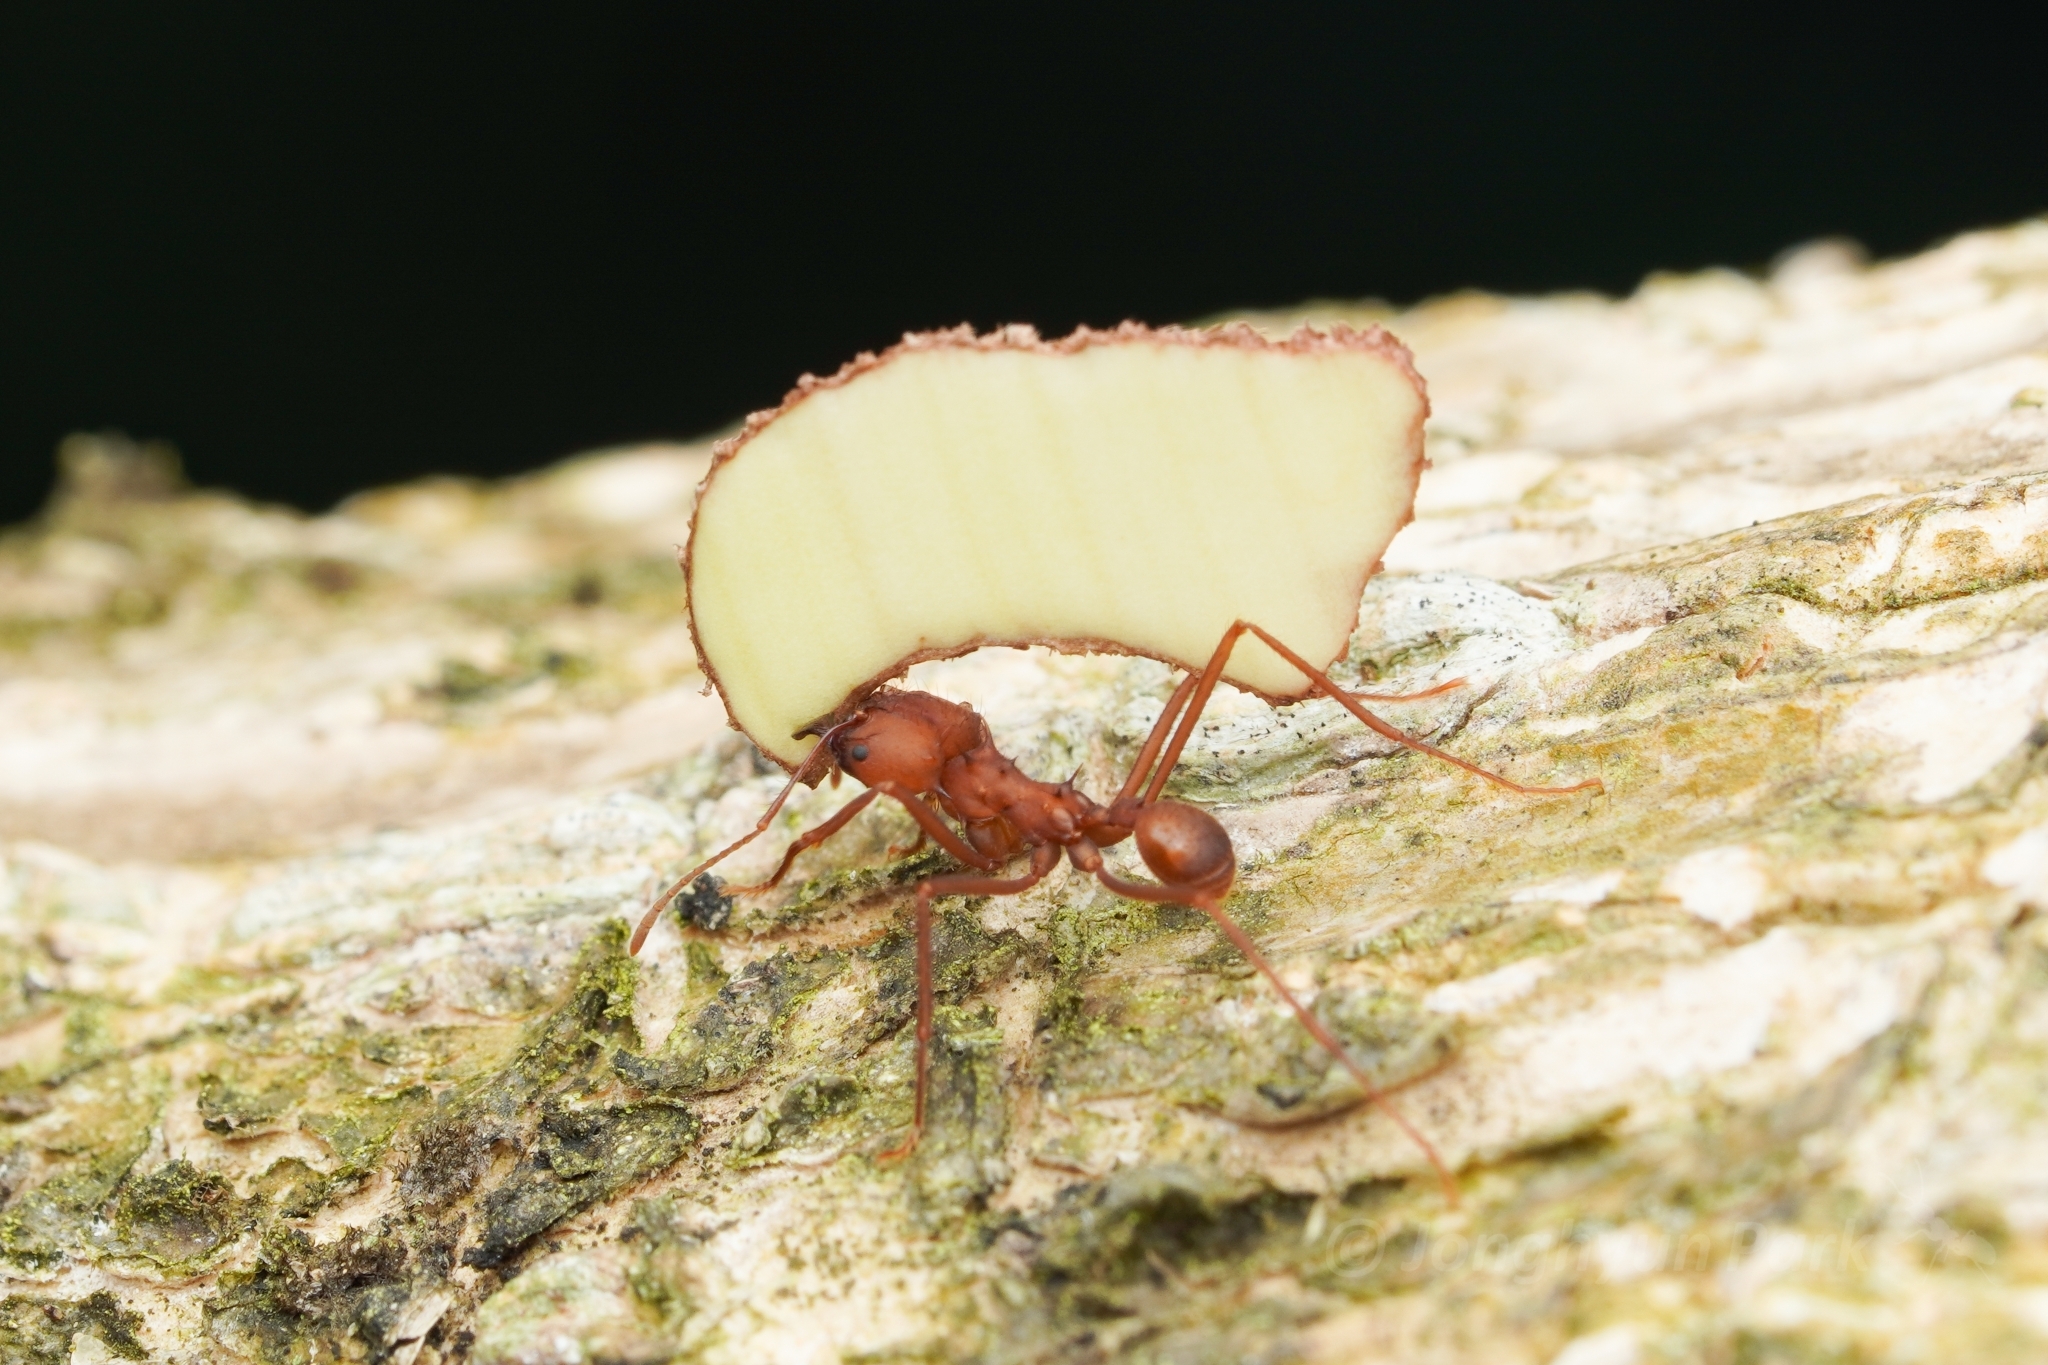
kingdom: Animalia
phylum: Arthropoda
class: Insecta
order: Hymenoptera
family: Formicidae
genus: Atta
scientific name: Atta sexdens
